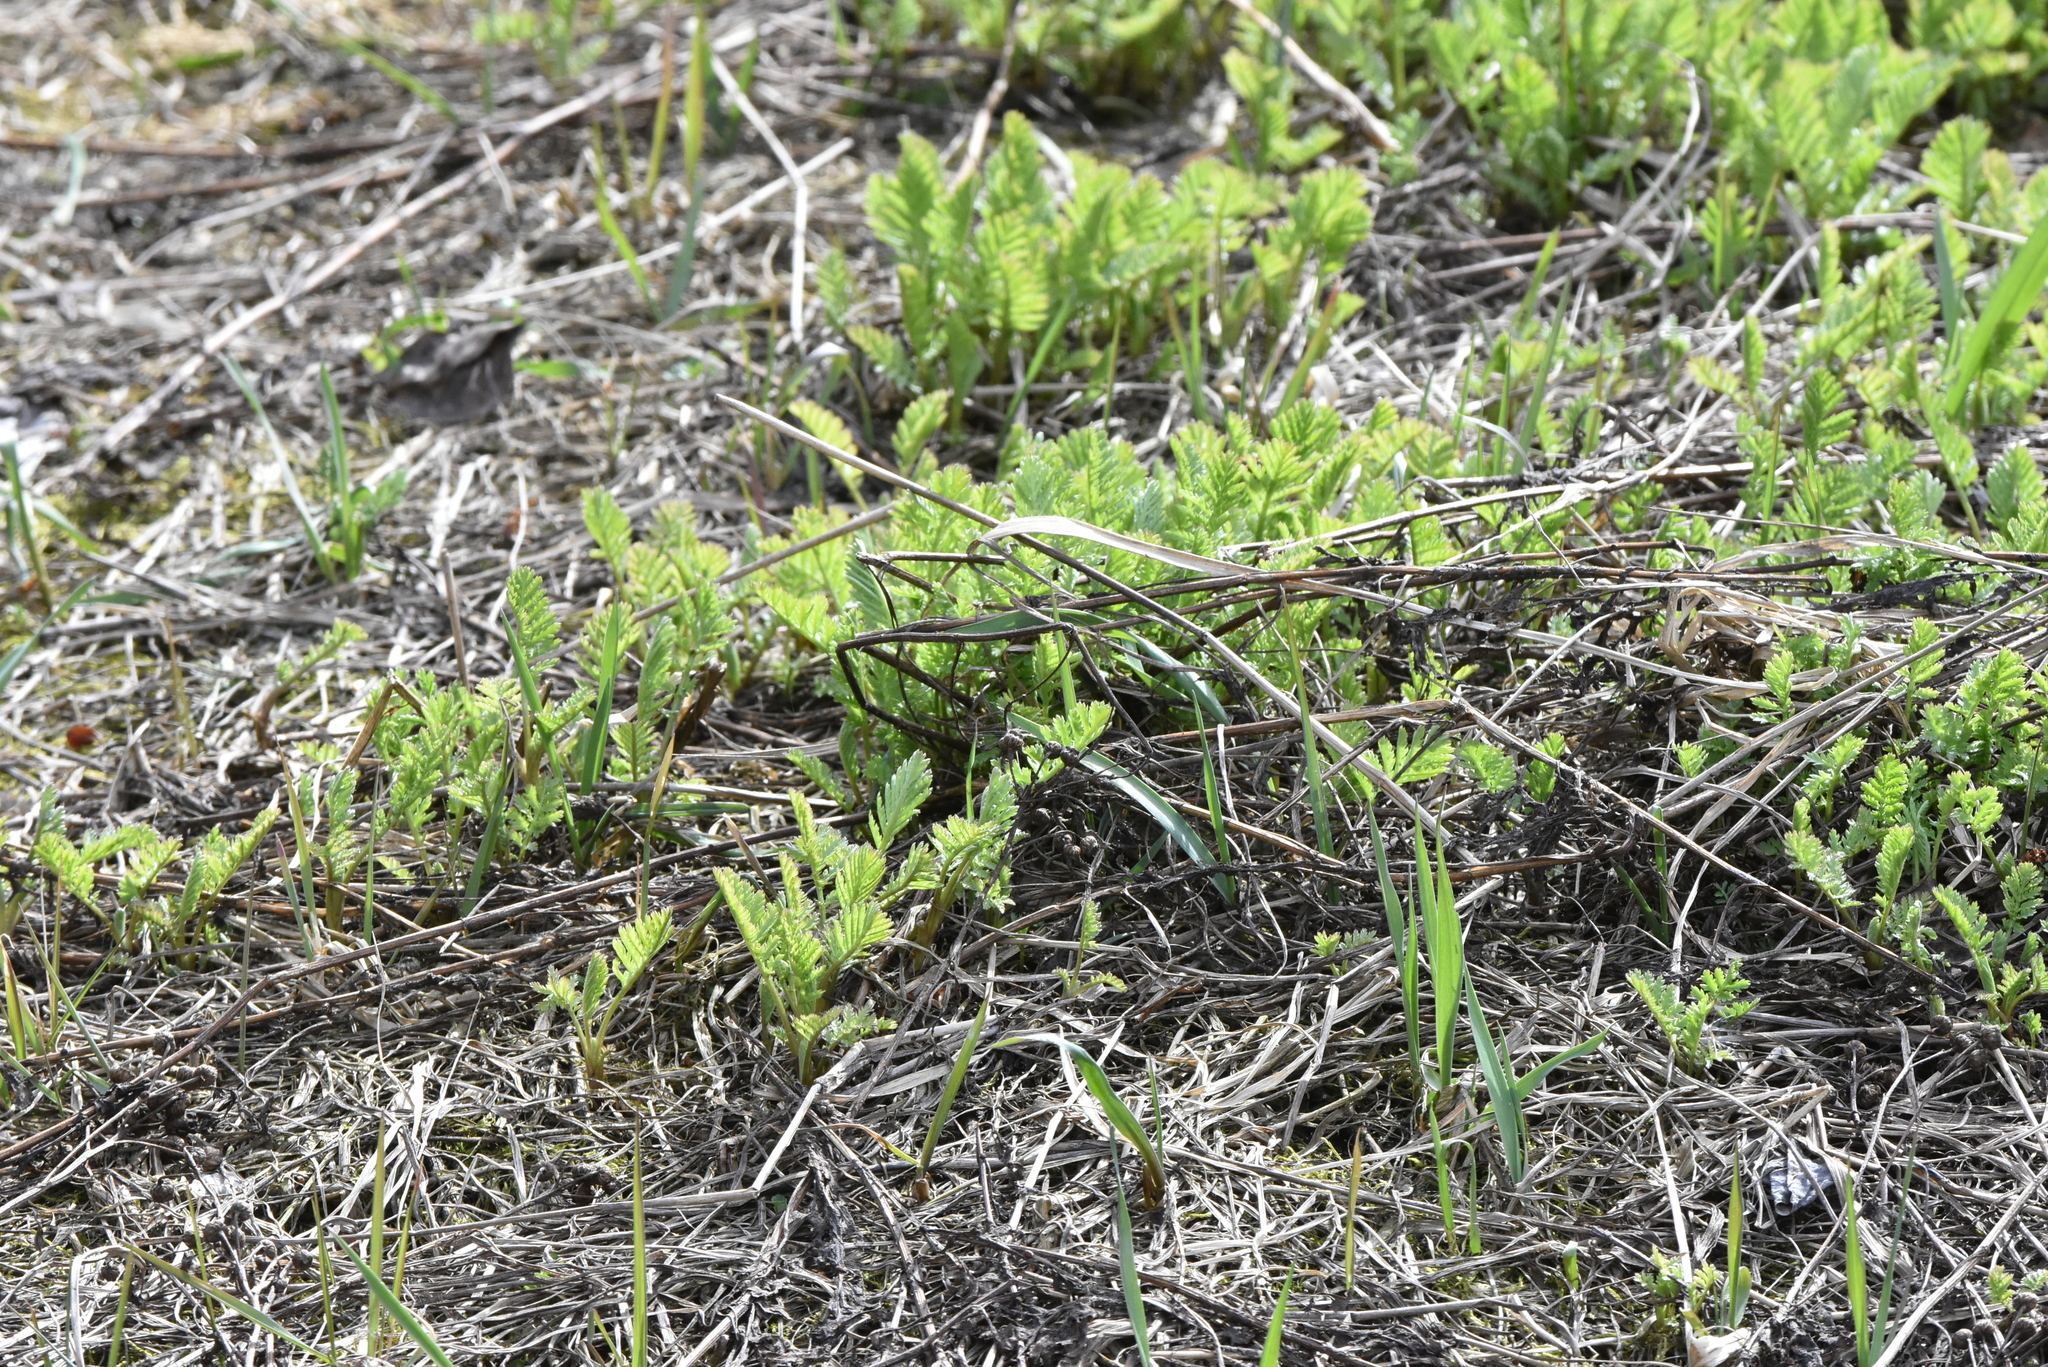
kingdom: Plantae
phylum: Tracheophyta
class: Magnoliopsida
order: Asterales
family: Asteraceae
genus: Tanacetum
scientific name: Tanacetum vulgare
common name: Common tansy
